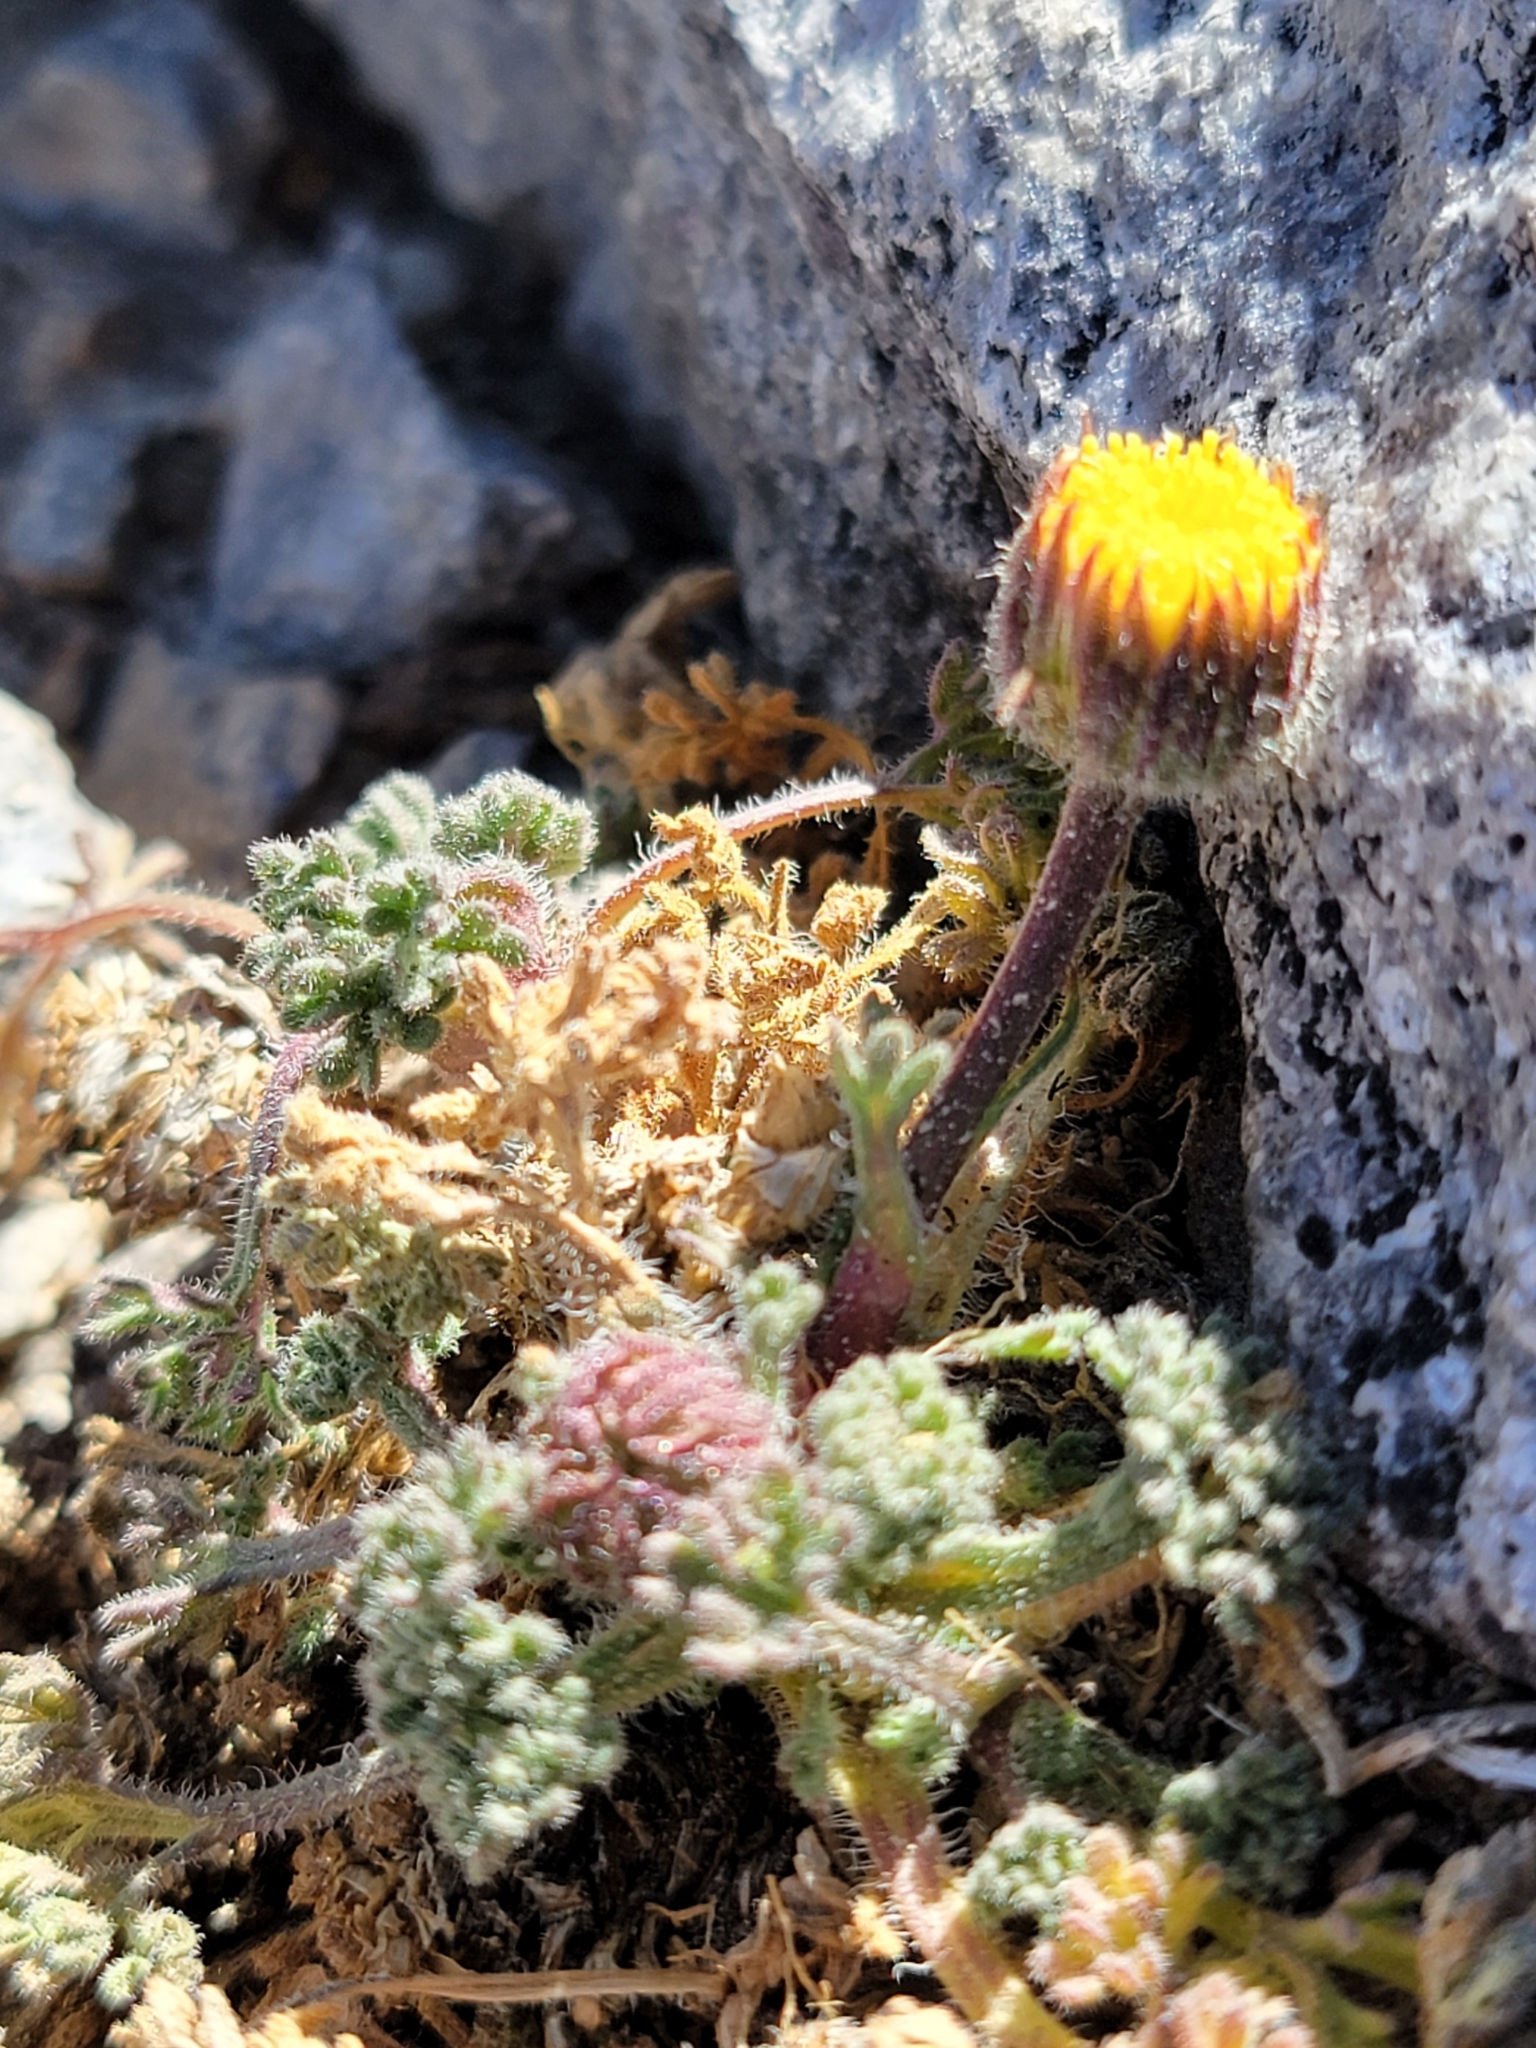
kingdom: Plantae
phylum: Tracheophyta
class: Magnoliopsida
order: Asterales
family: Asteraceae
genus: Erigeron
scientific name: Erigeron compositus
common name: Dwarf mountain fleabane
